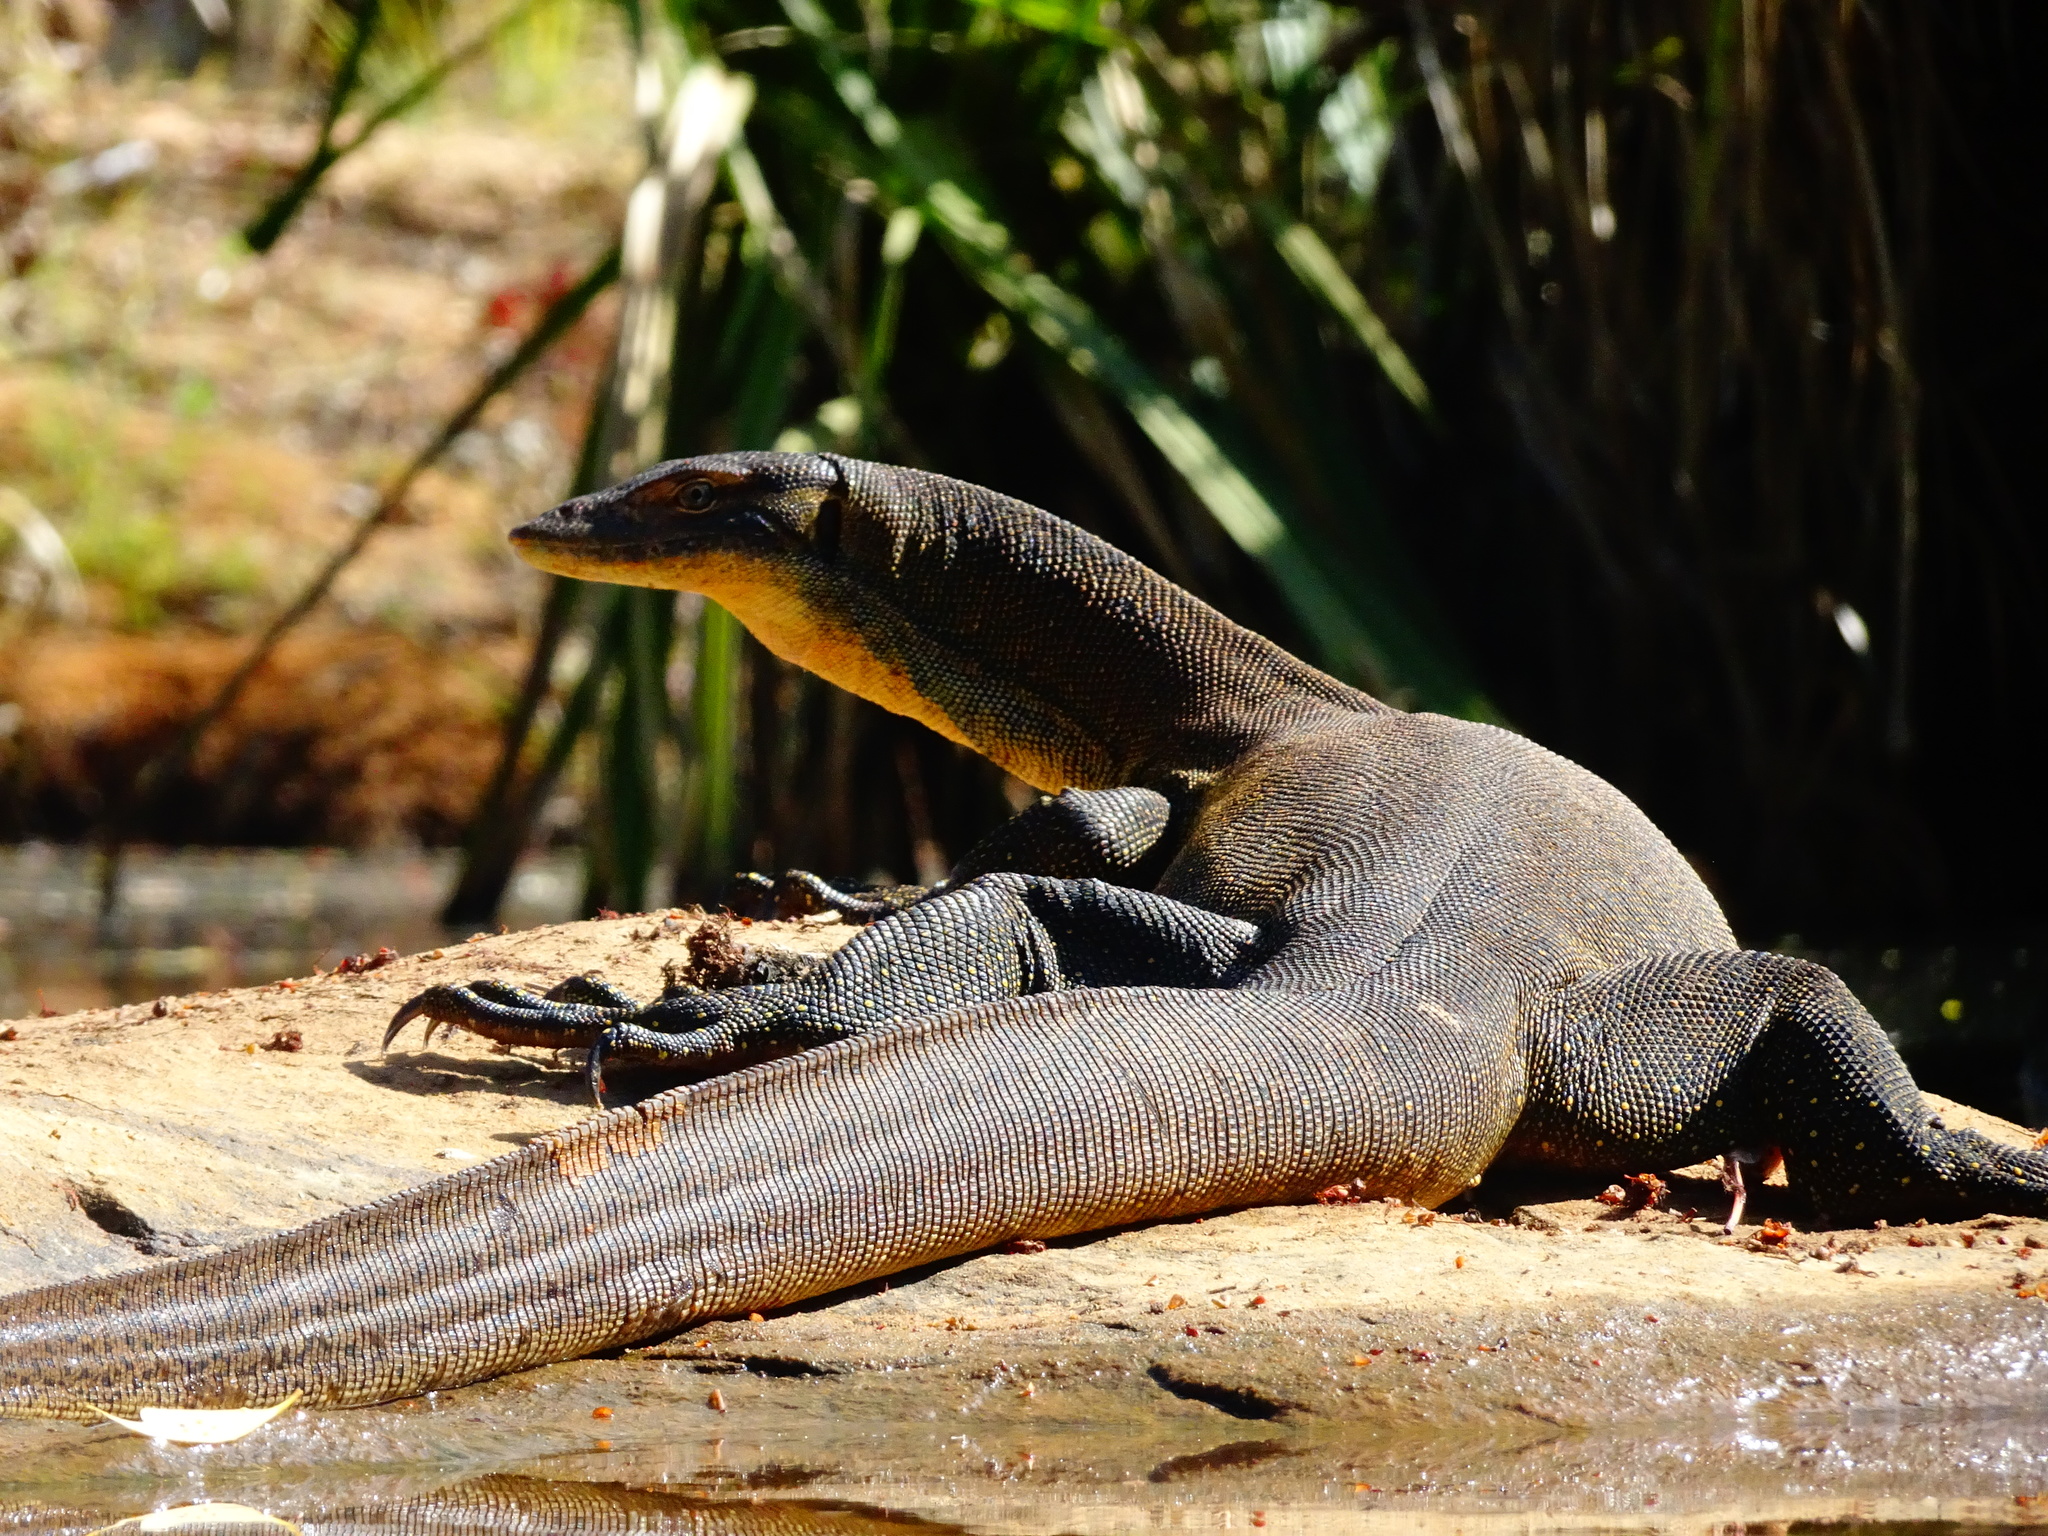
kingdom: Animalia
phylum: Chordata
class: Squamata
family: Varanidae
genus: Varanus
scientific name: Varanus mertensi
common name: Mertens's water monitor
